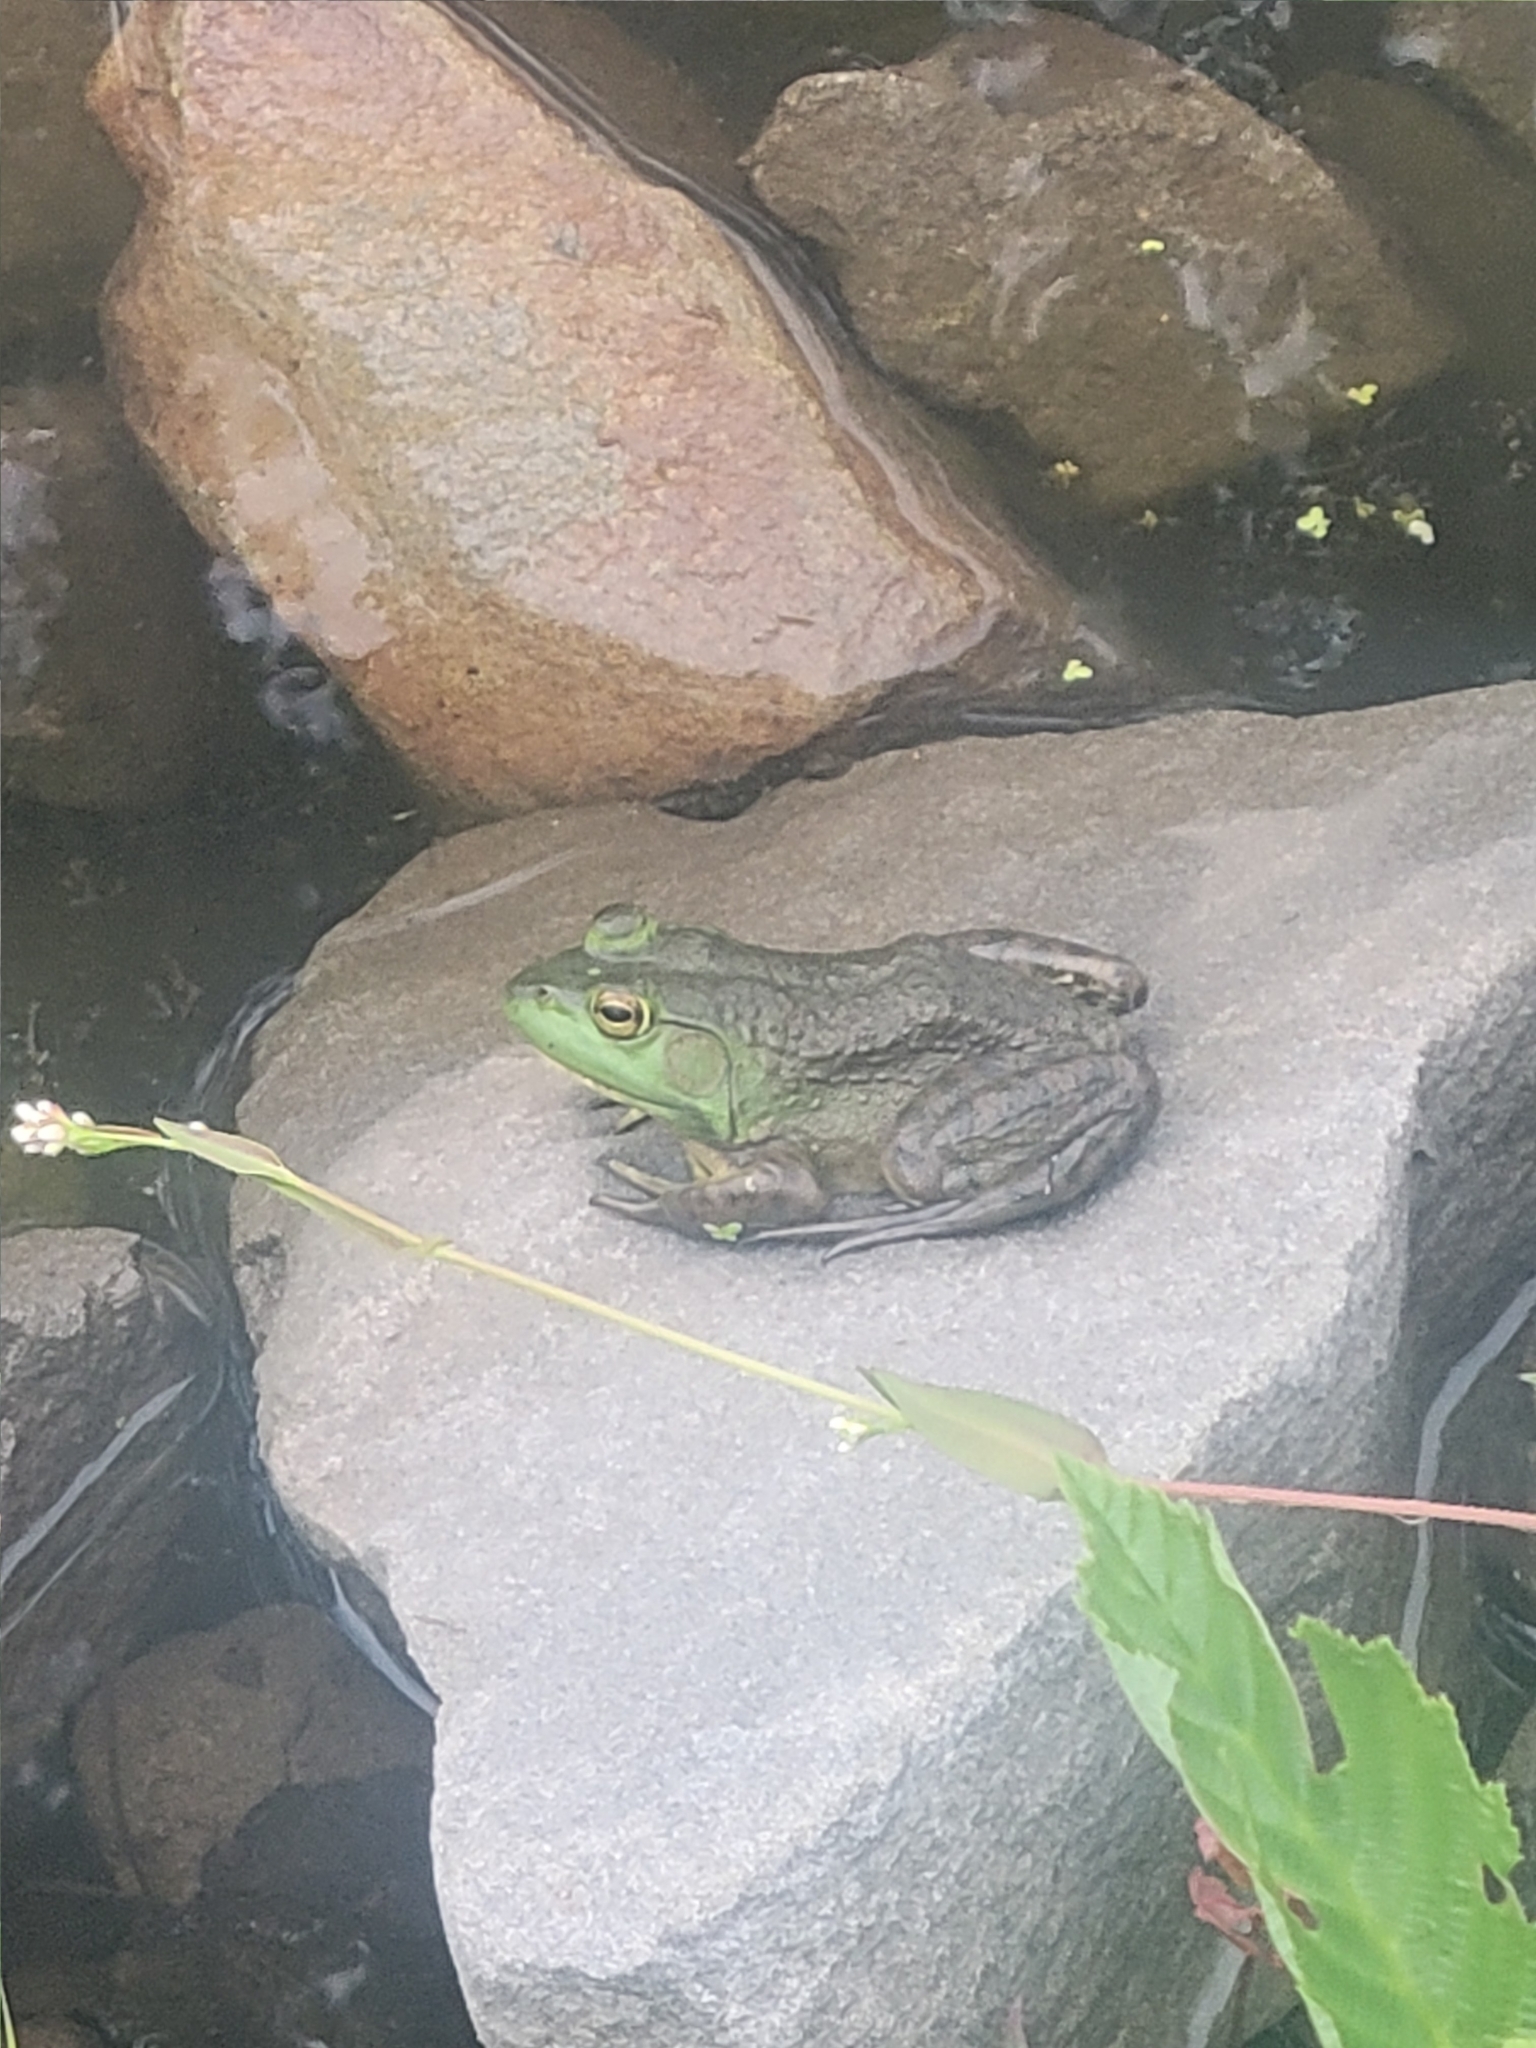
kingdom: Animalia
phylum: Chordata
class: Amphibia
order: Anura
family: Ranidae
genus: Lithobates
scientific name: Lithobates catesbeianus
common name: American bullfrog
